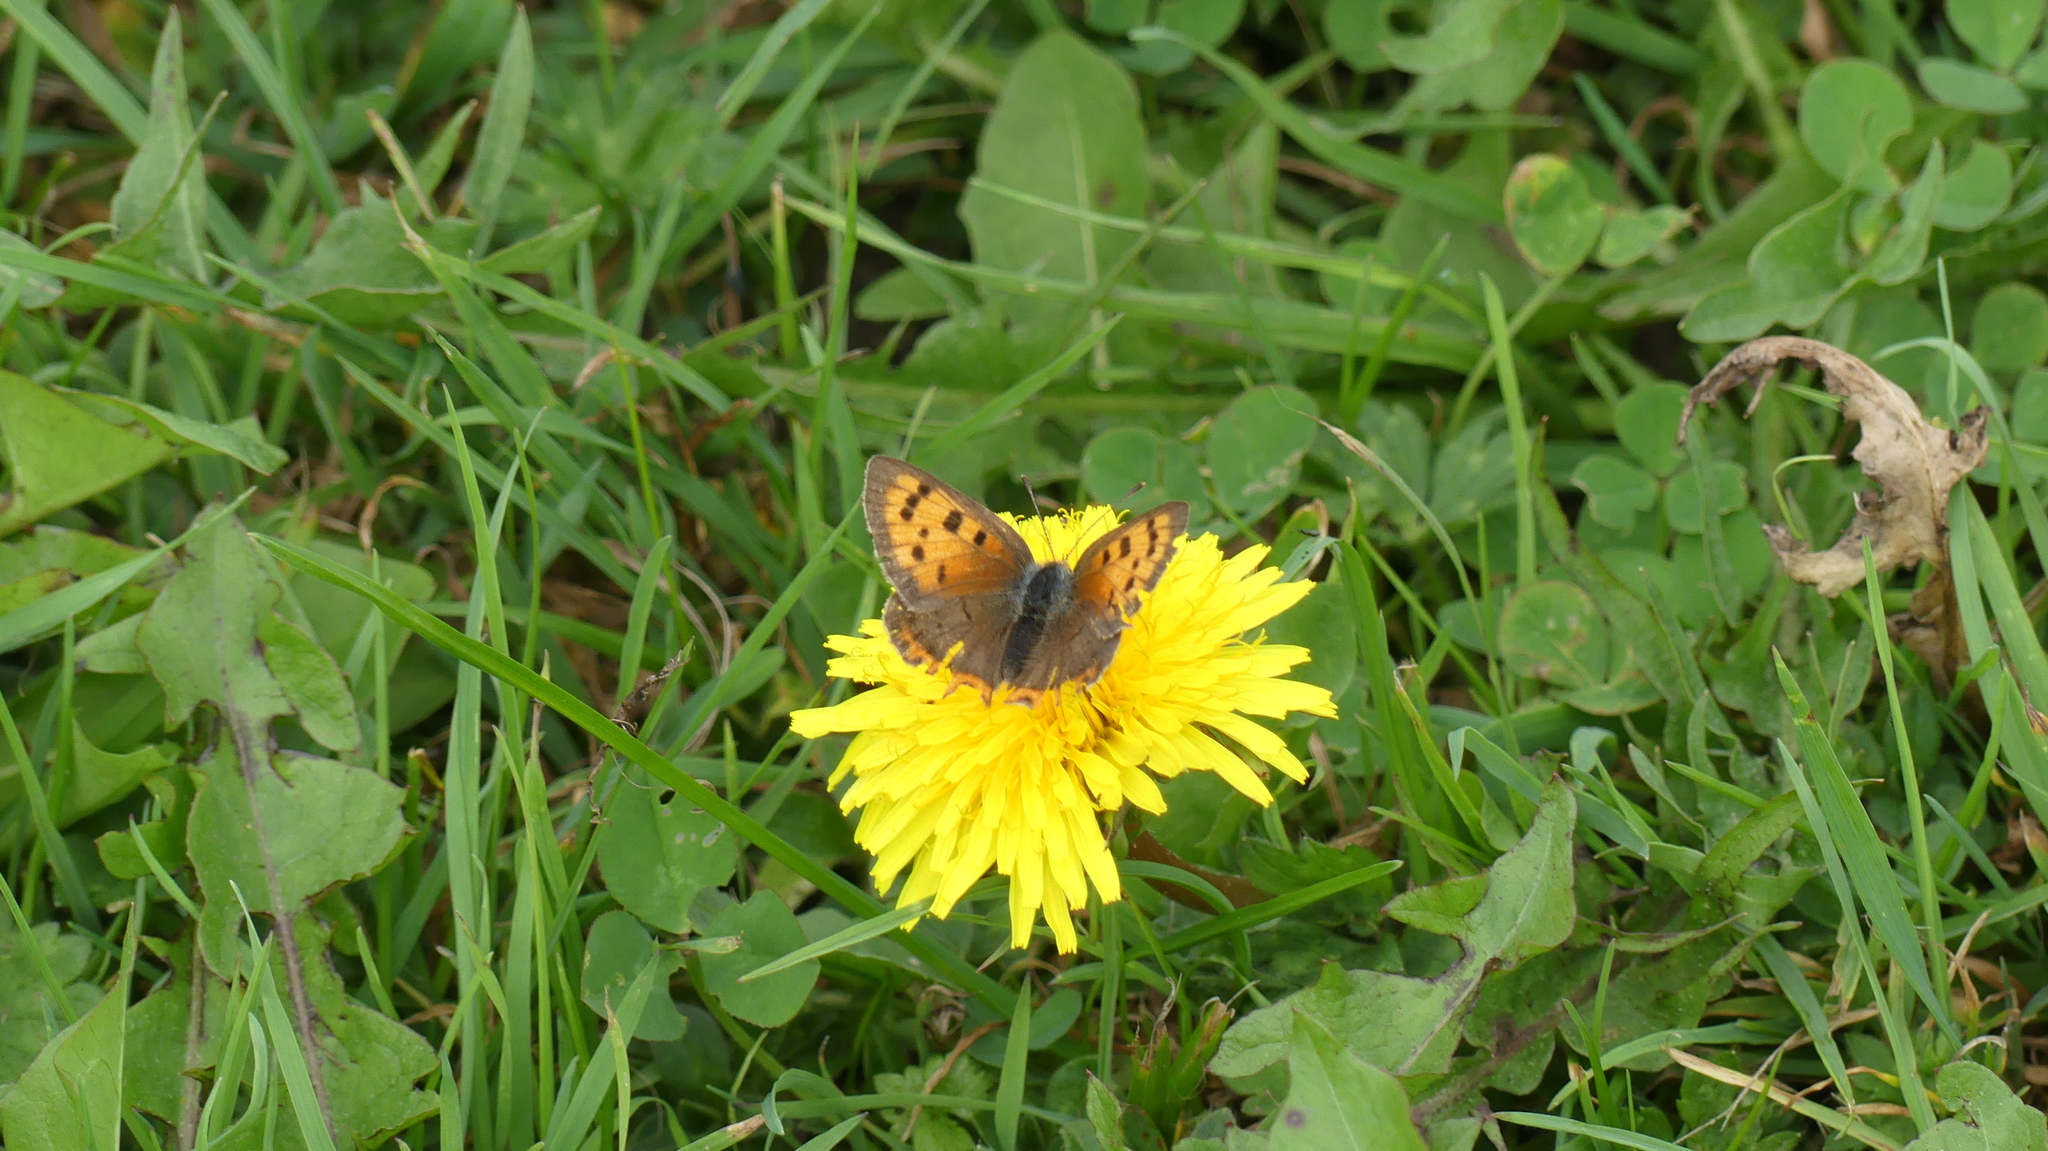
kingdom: Animalia
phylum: Arthropoda
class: Insecta
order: Lepidoptera
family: Lycaenidae
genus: Lycaena
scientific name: Lycaena phlaeas
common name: Small copper
